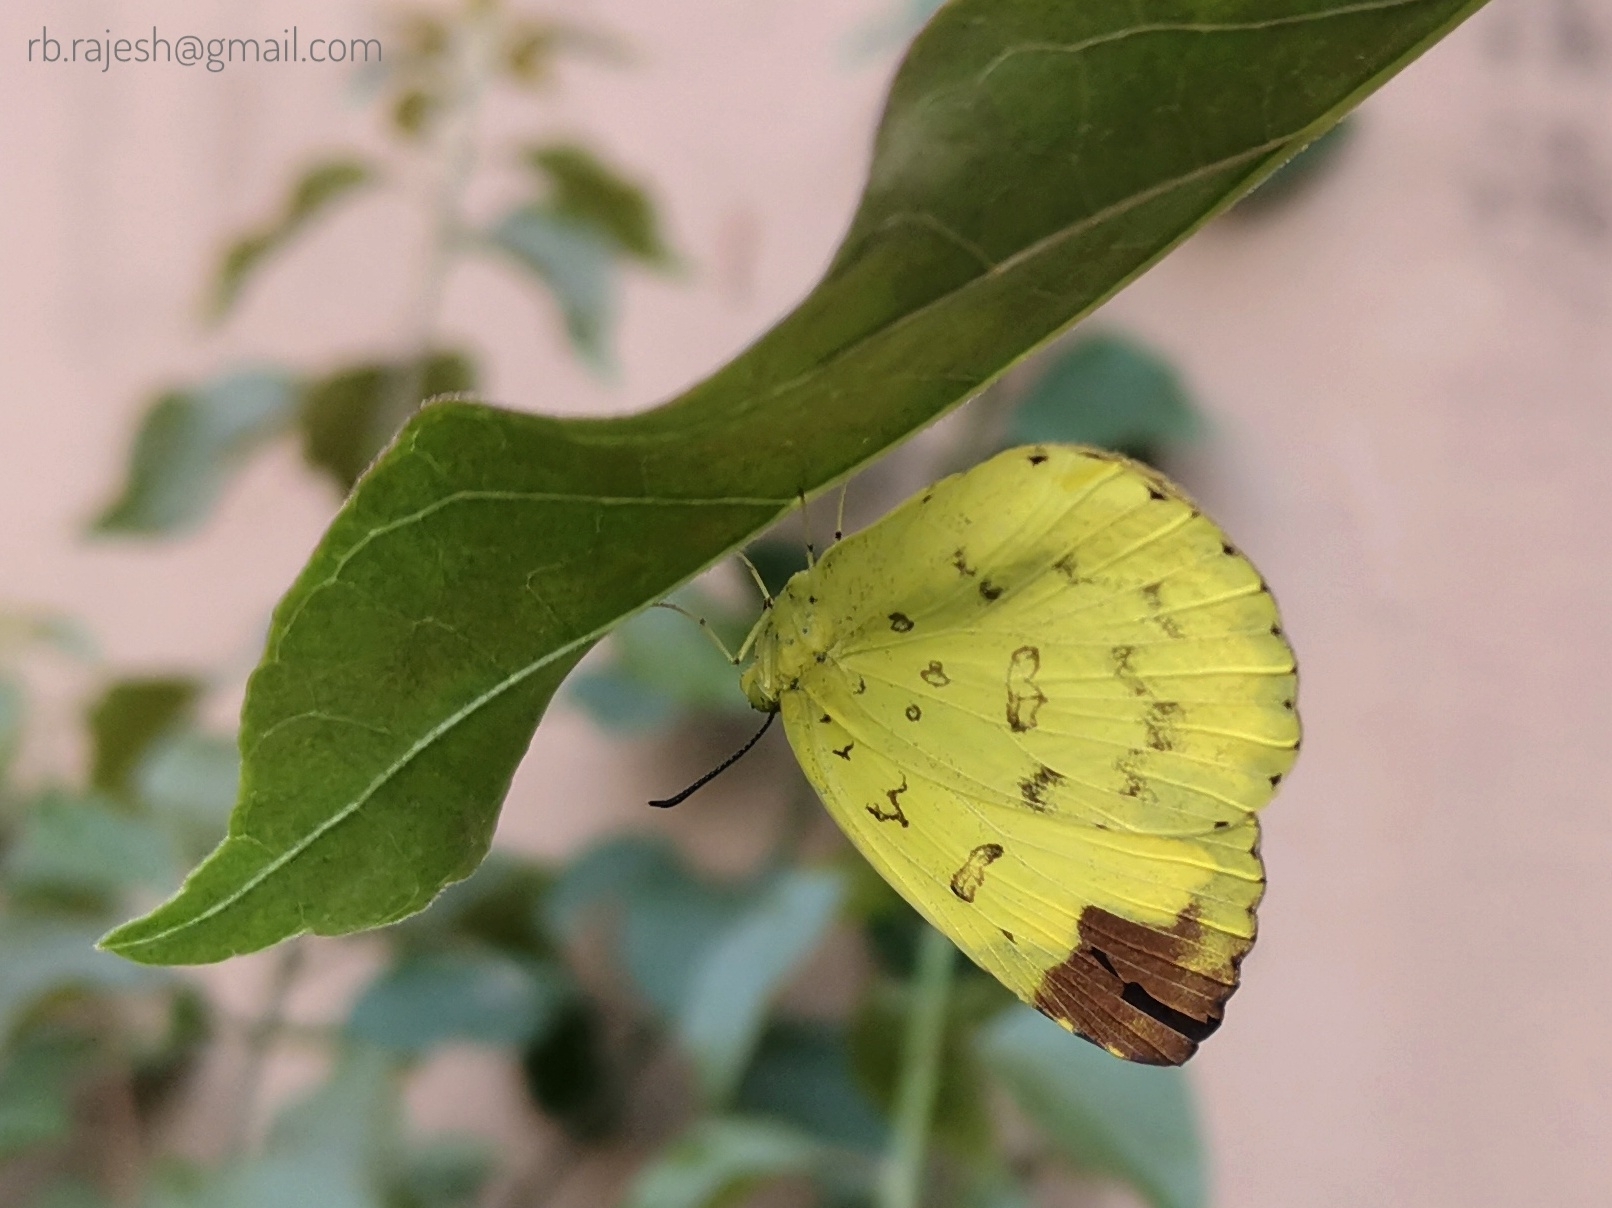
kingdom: Animalia
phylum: Arthropoda
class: Insecta
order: Lepidoptera
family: Pieridae
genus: Eurema
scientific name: Eurema blanda
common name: Three-spot grass yellow
